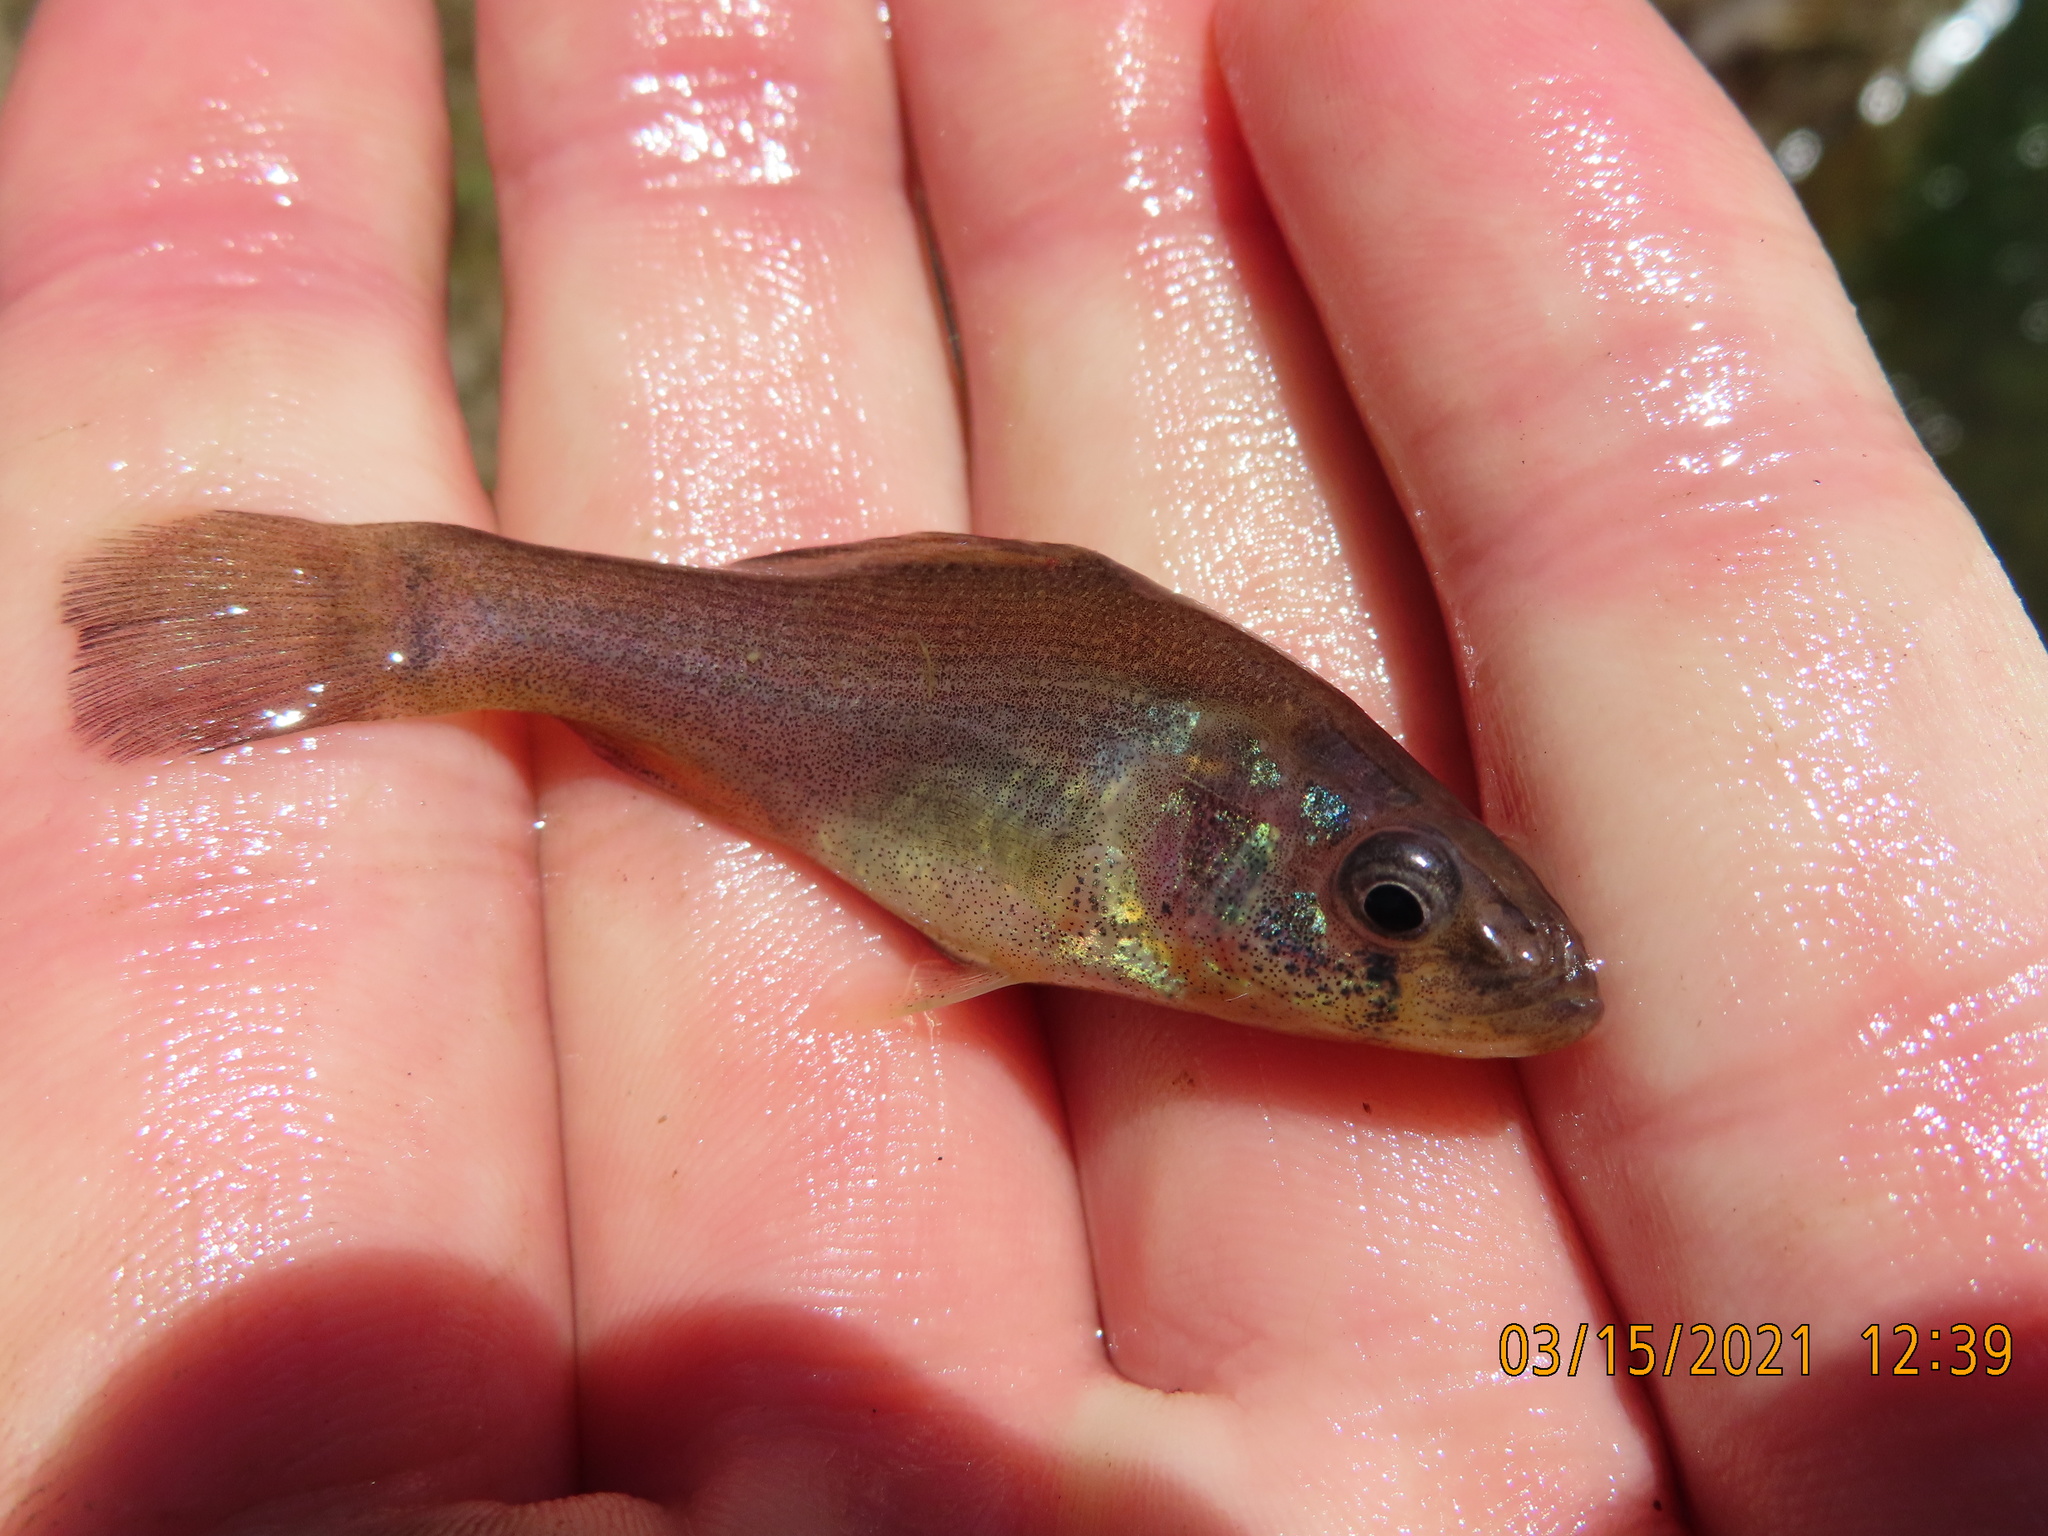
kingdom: Animalia
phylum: Chordata
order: Percopsiformes
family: Aphredoderidae
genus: Aphredoderus
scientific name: Aphredoderus sayanus
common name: Pirate perch
